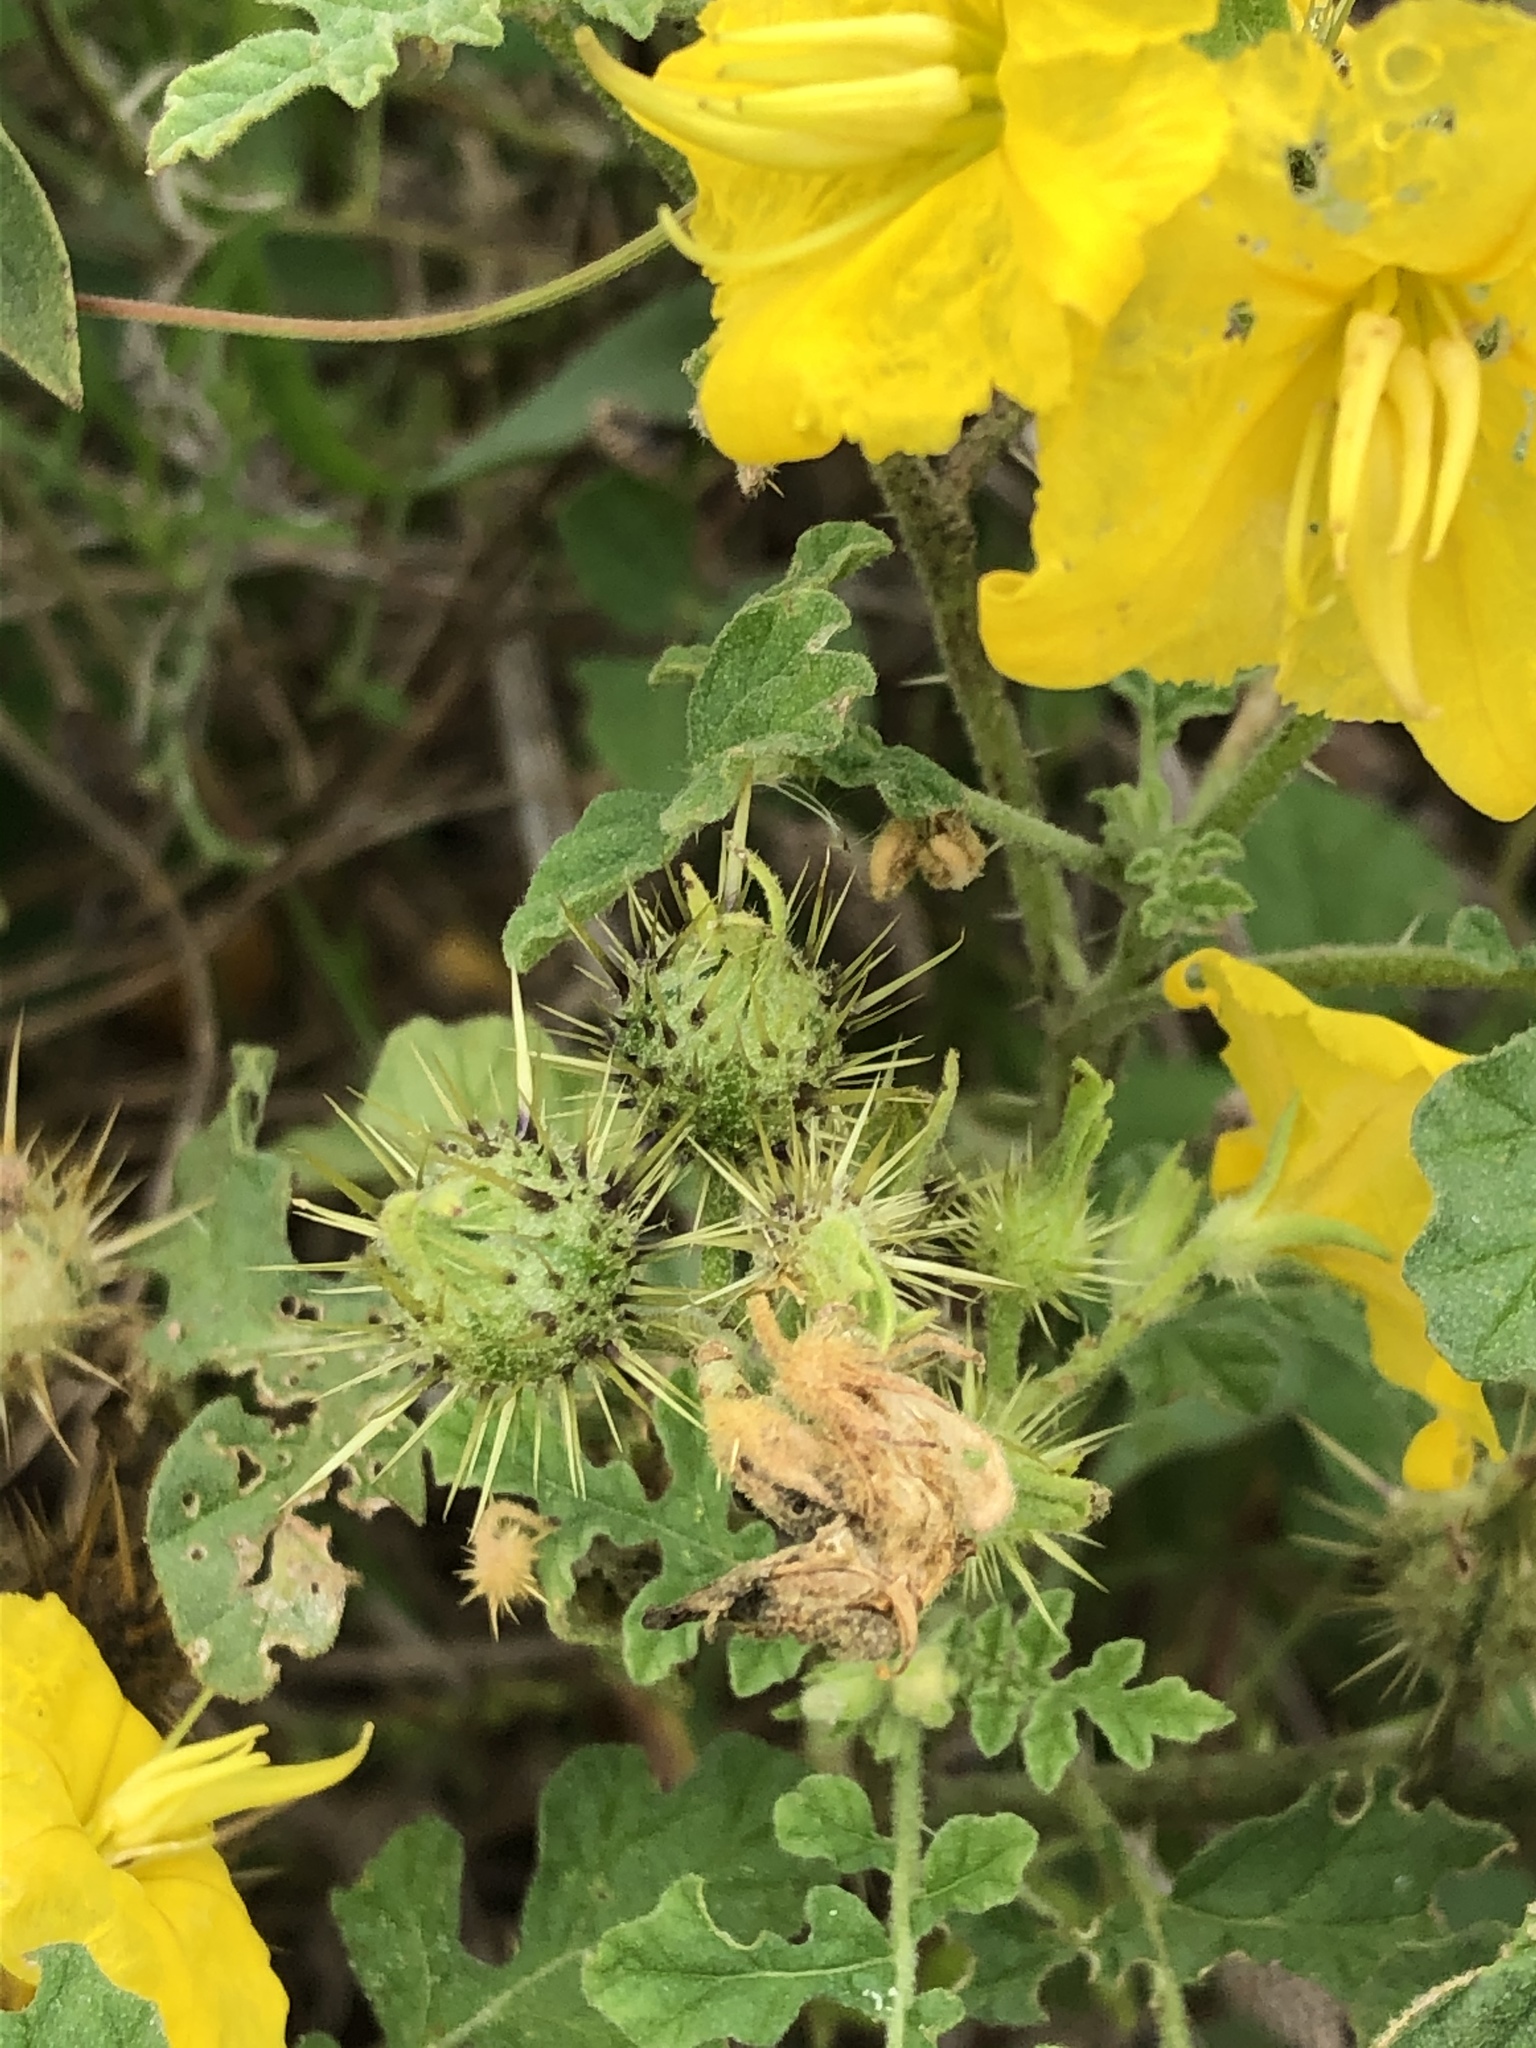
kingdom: Plantae
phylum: Tracheophyta
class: Magnoliopsida
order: Solanales
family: Solanaceae
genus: Solanum
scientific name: Solanum angustifolium
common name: Buffalobur nightshade
